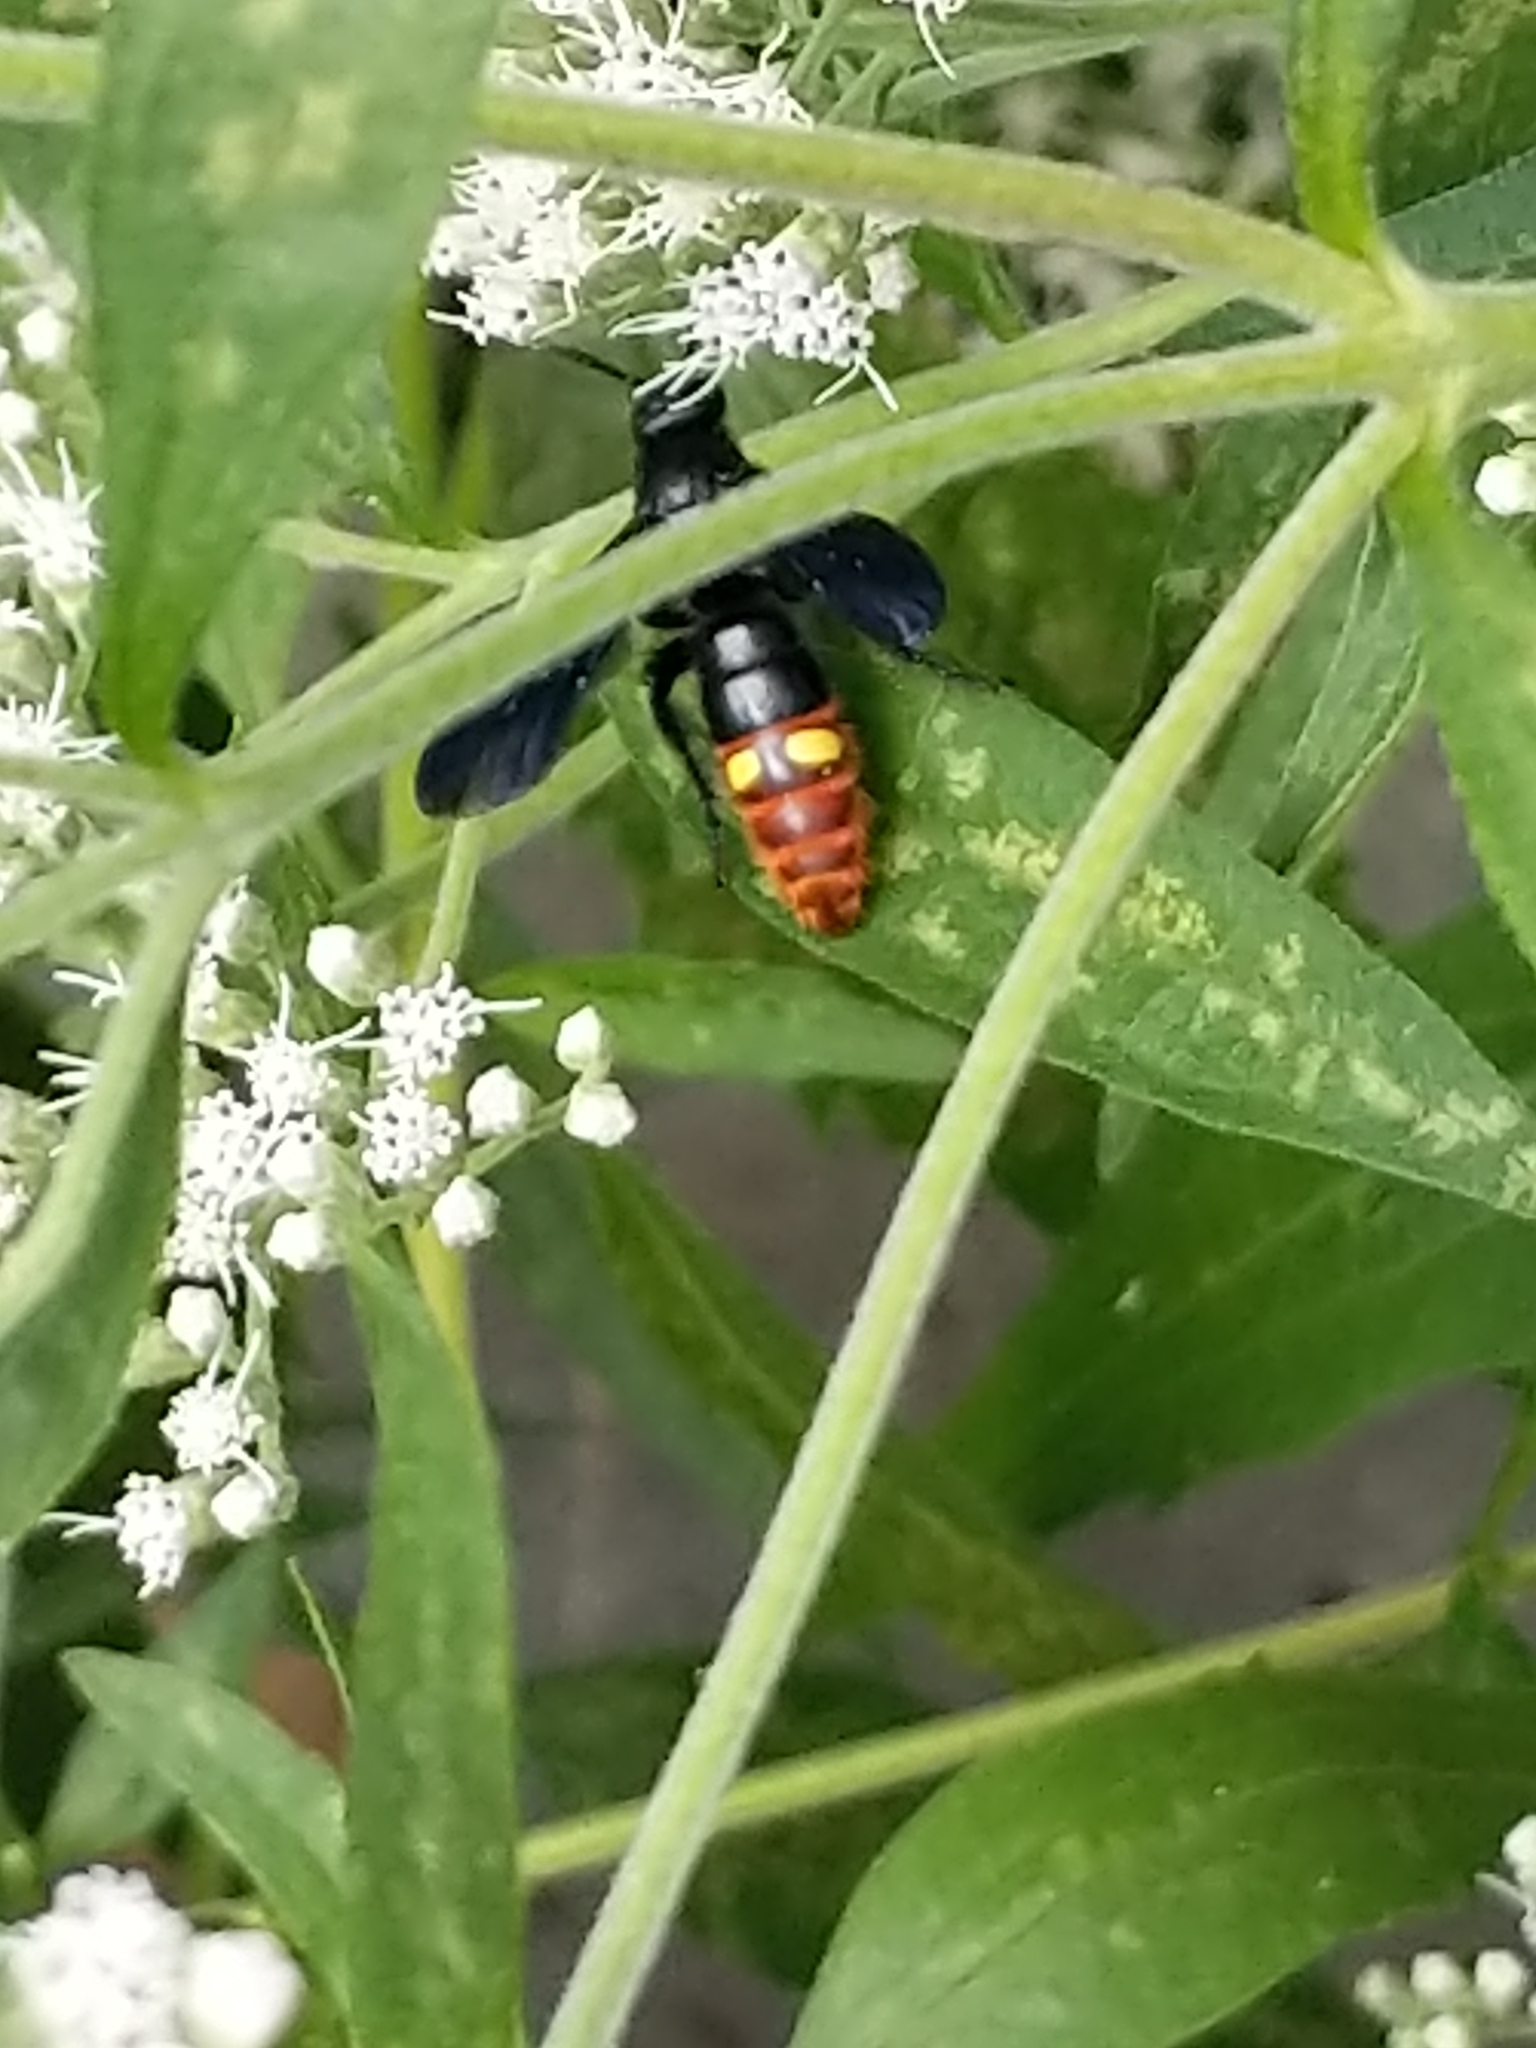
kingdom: Animalia
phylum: Arthropoda
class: Insecta
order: Hymenoptera
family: Scoliidae
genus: Scolia
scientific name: Scolia dubia
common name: Blue-winged scoliid wasp
